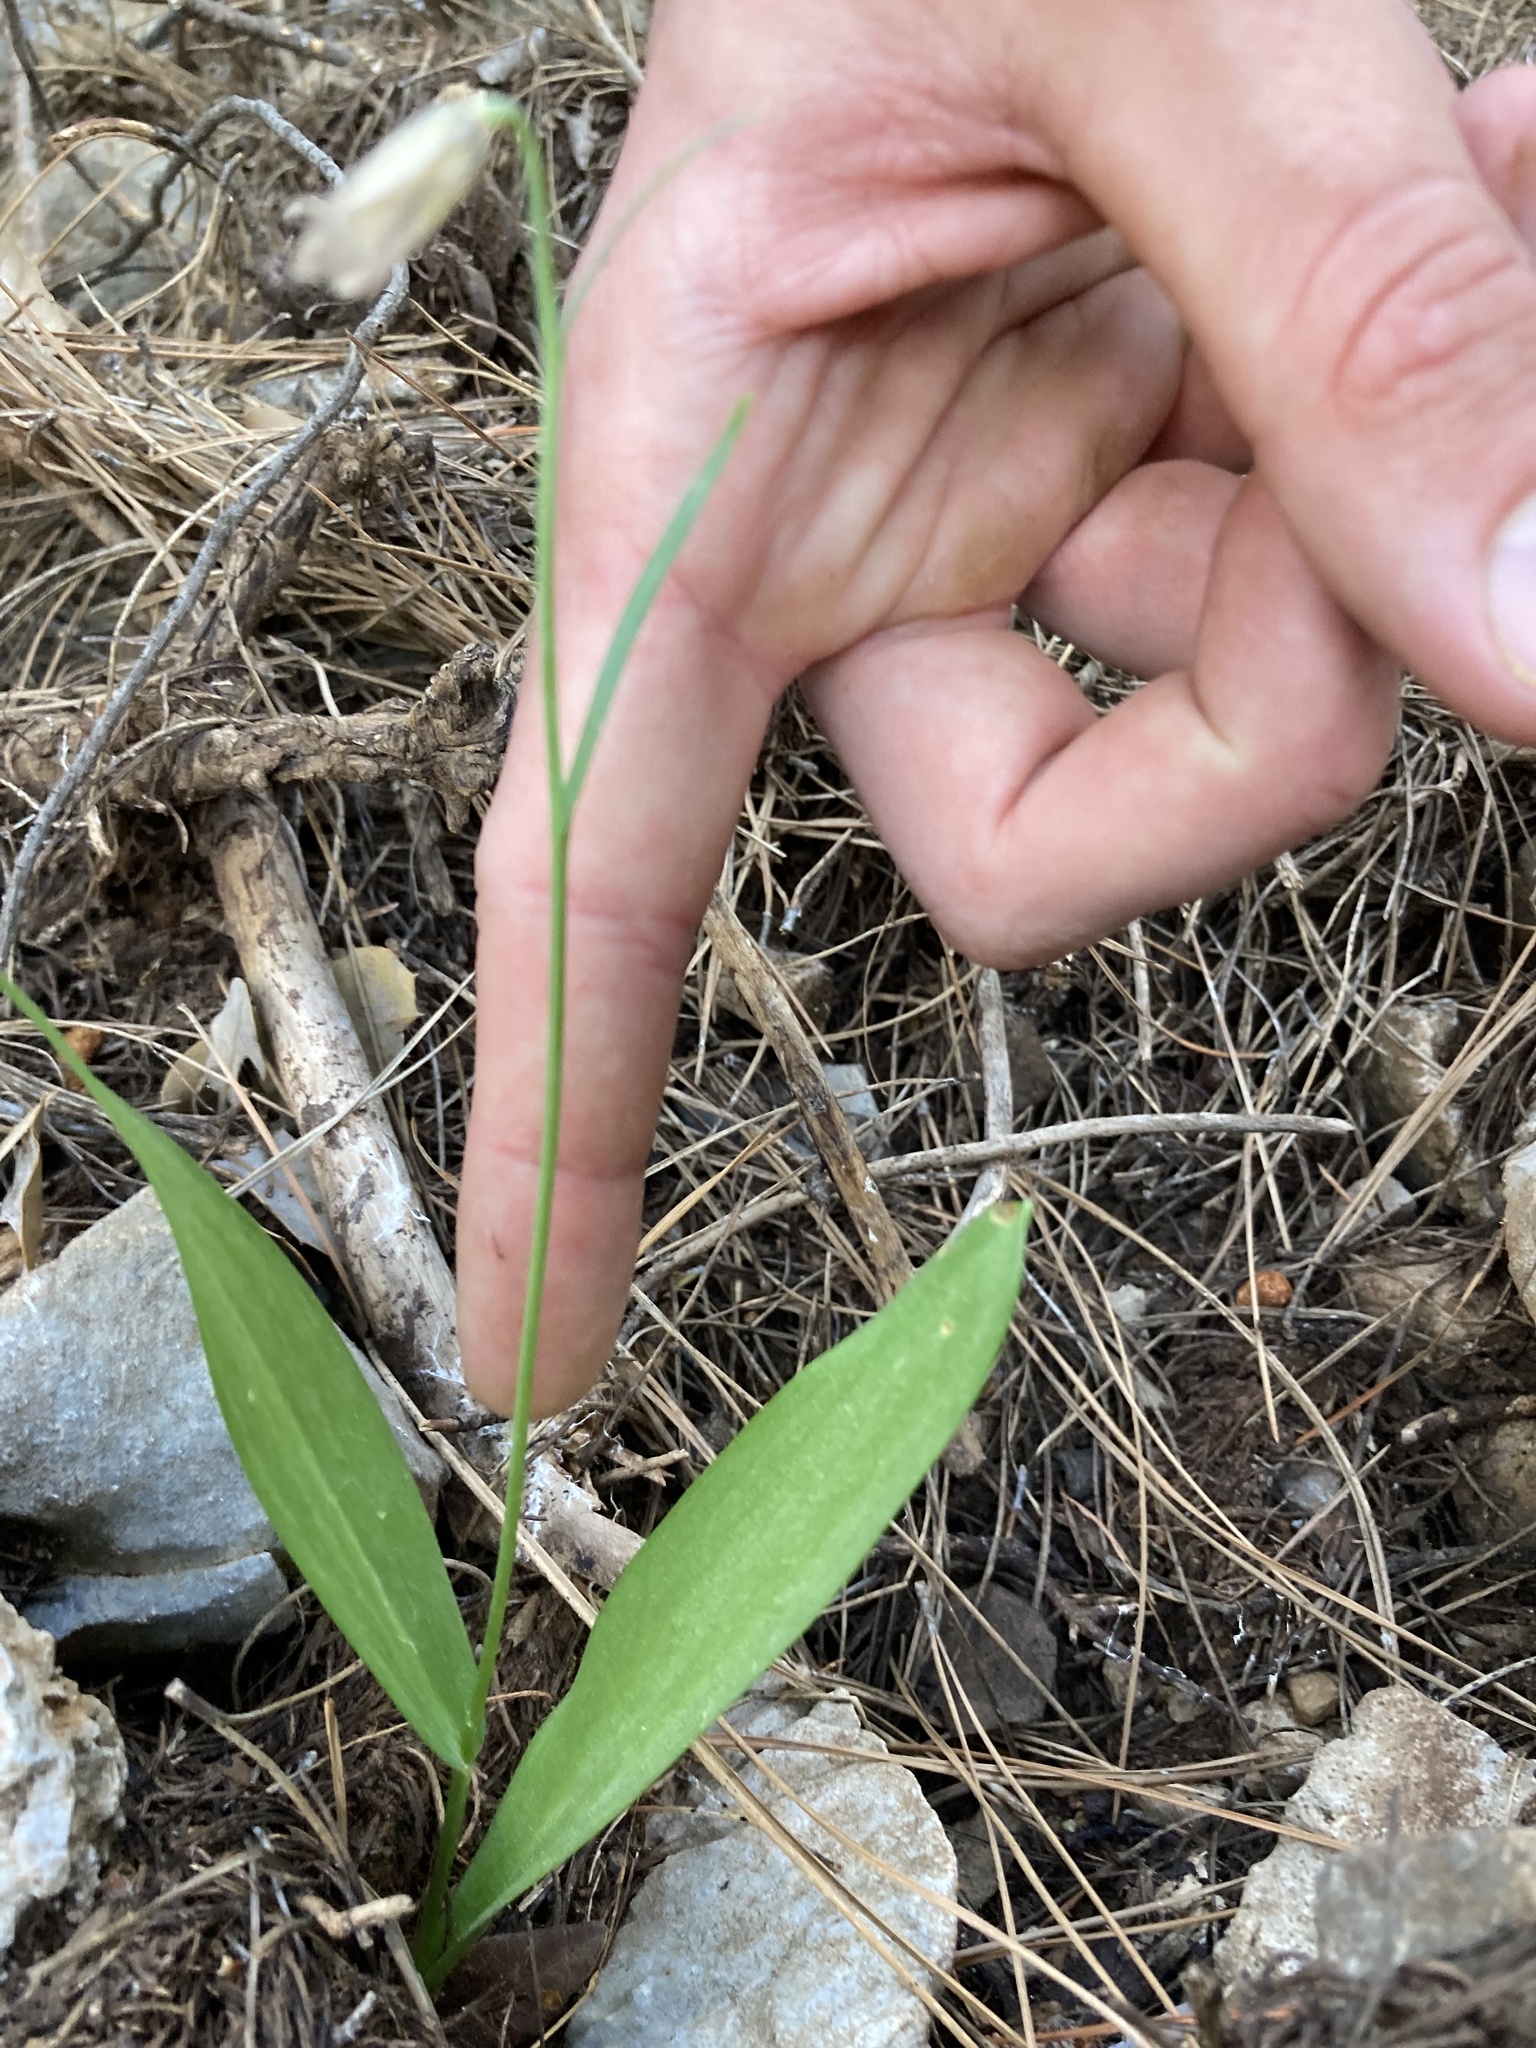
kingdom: Plantae
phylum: Tracheophyta
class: Liliopsida
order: Liliales
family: Liliaceae
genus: Fritillaria
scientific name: Fritillaria enginiana
